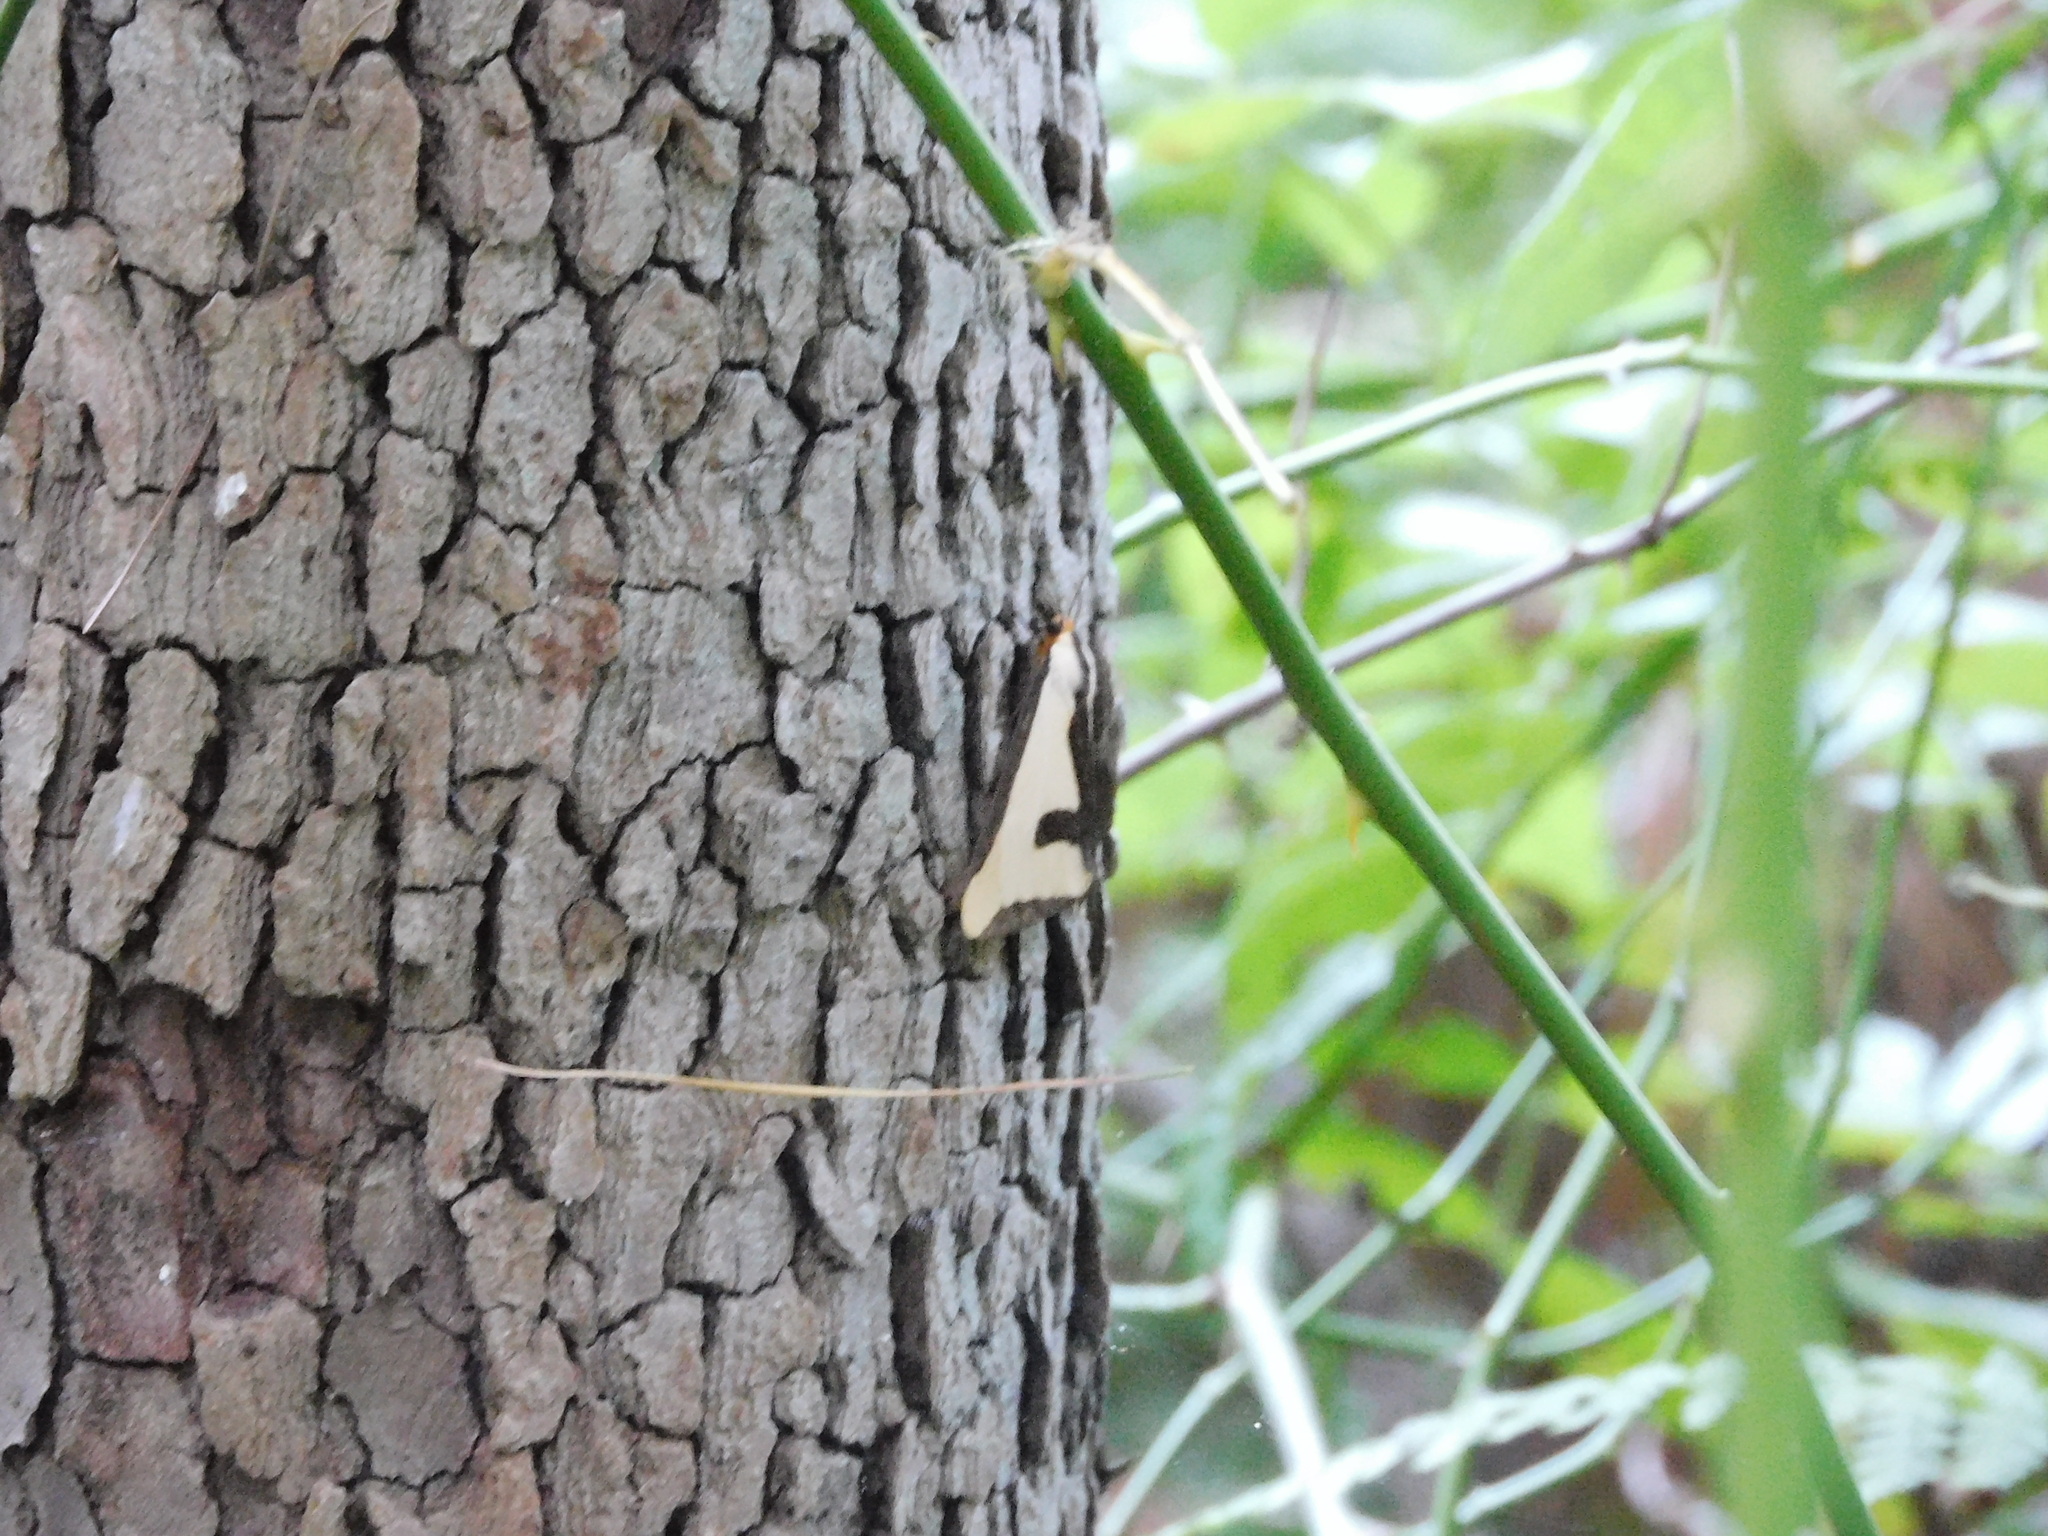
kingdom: Animalia
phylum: Arthropoda
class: Insecta
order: Lepidoptera
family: Erebidae
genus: Haploa
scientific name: Haploa clymene
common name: Clymene moth
